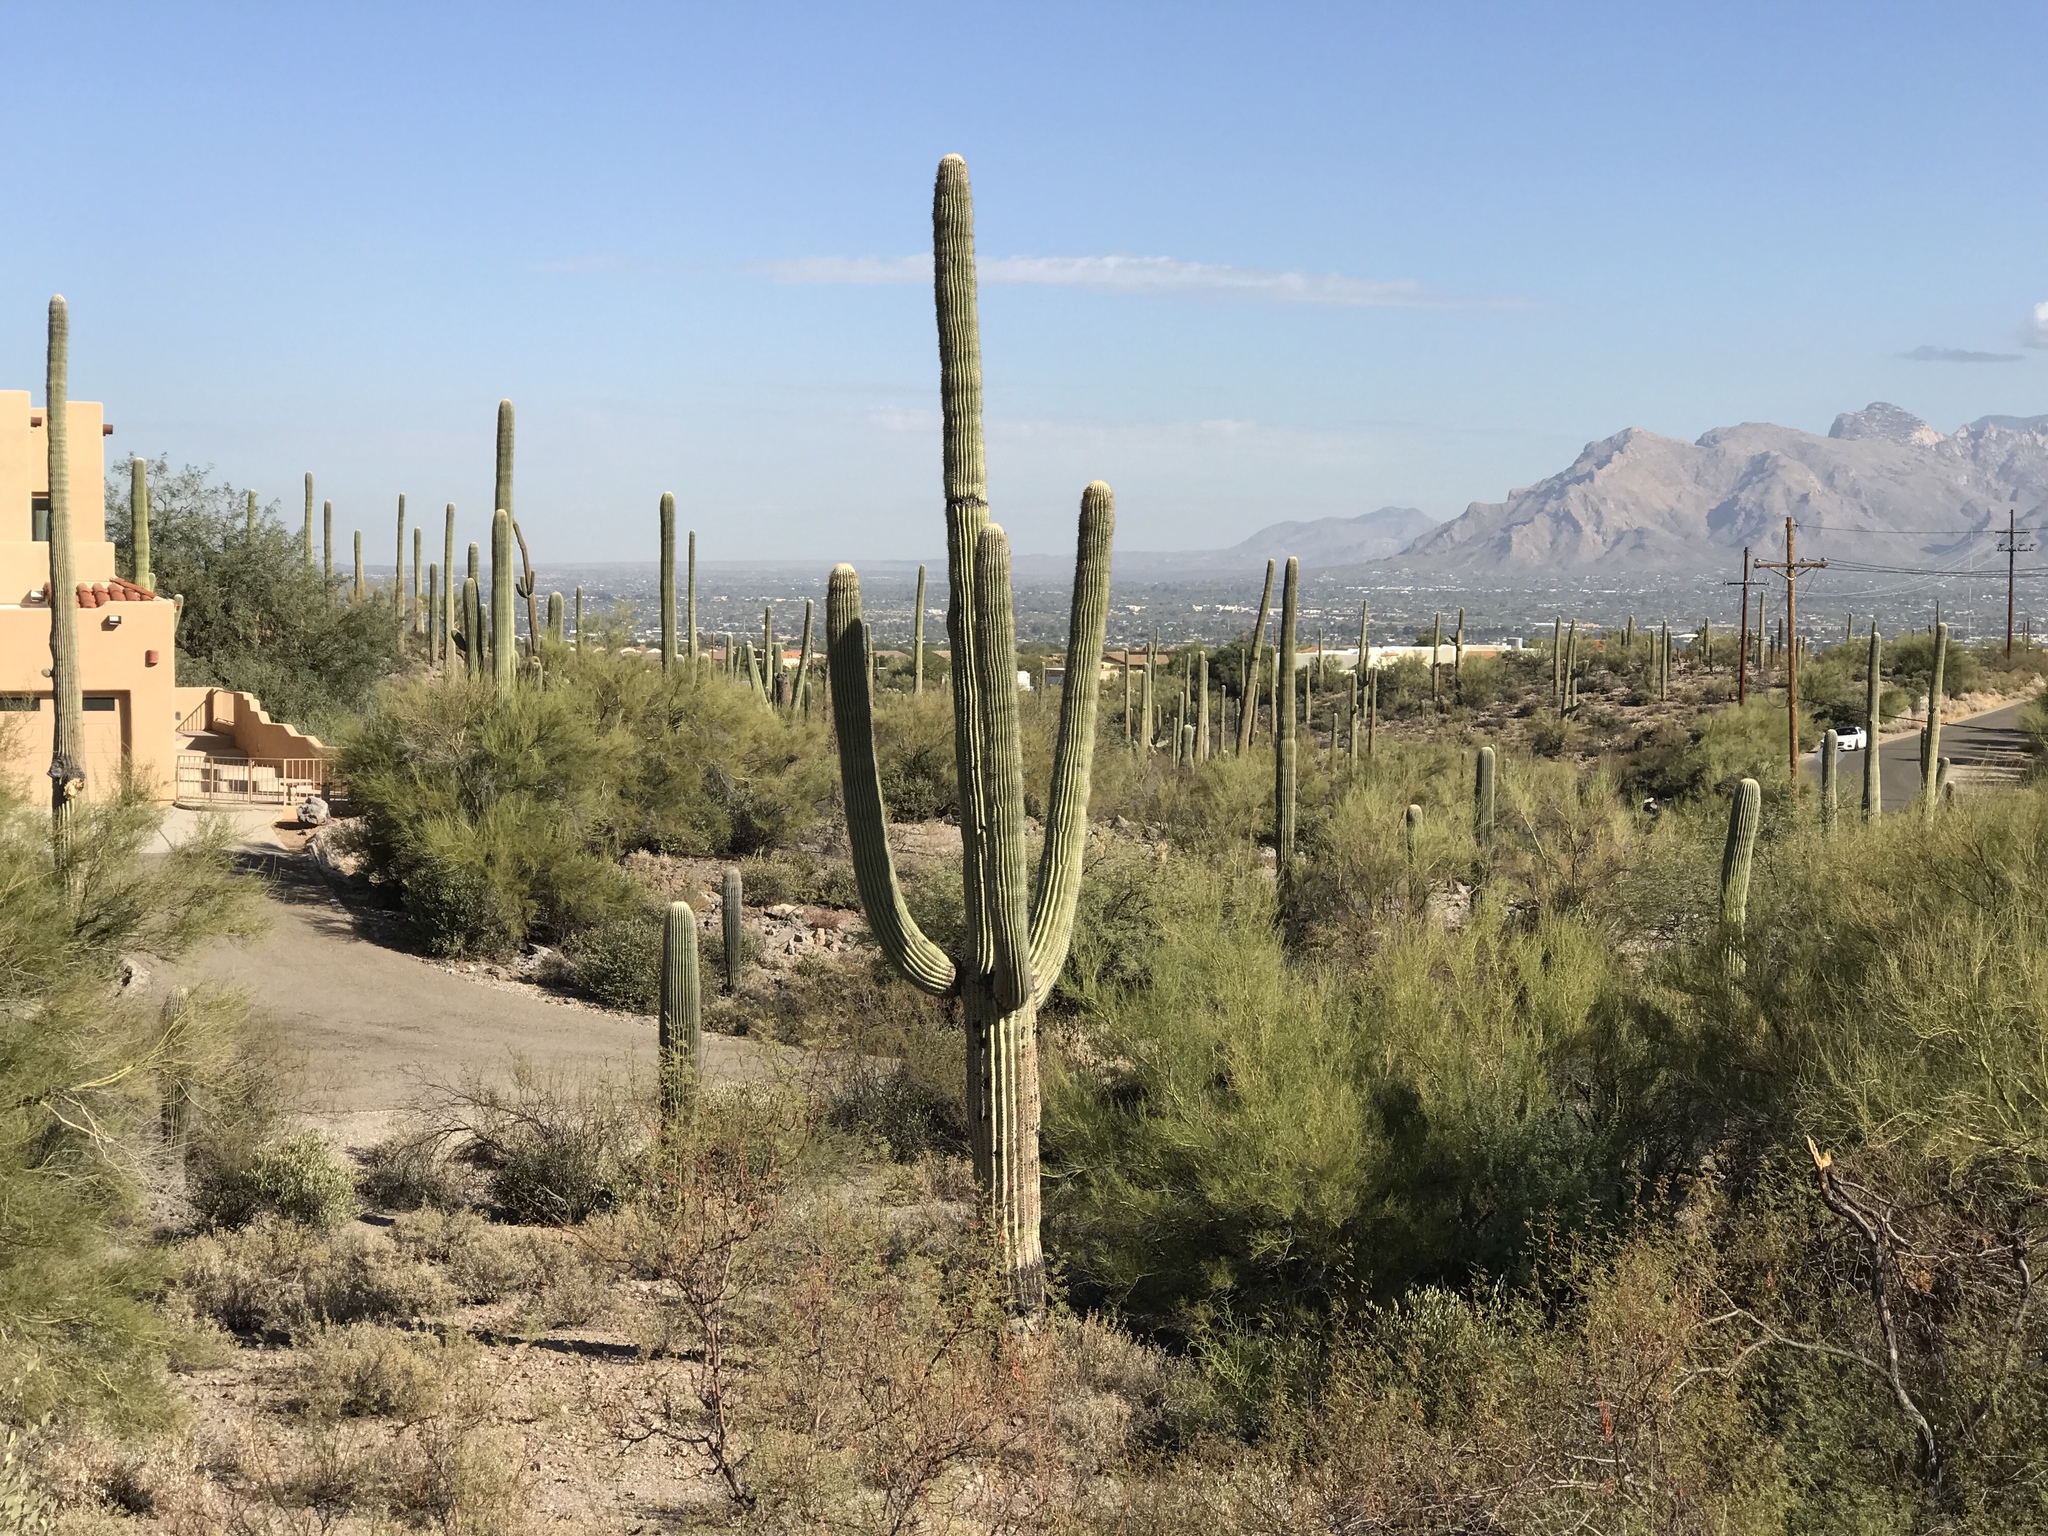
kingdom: Plantae
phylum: Tracheophyta
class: Magnoliopsida
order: Caryophyllales
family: Cactaceae
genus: Carnegiea
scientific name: Carnegiea gigantea
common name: Saguaro
